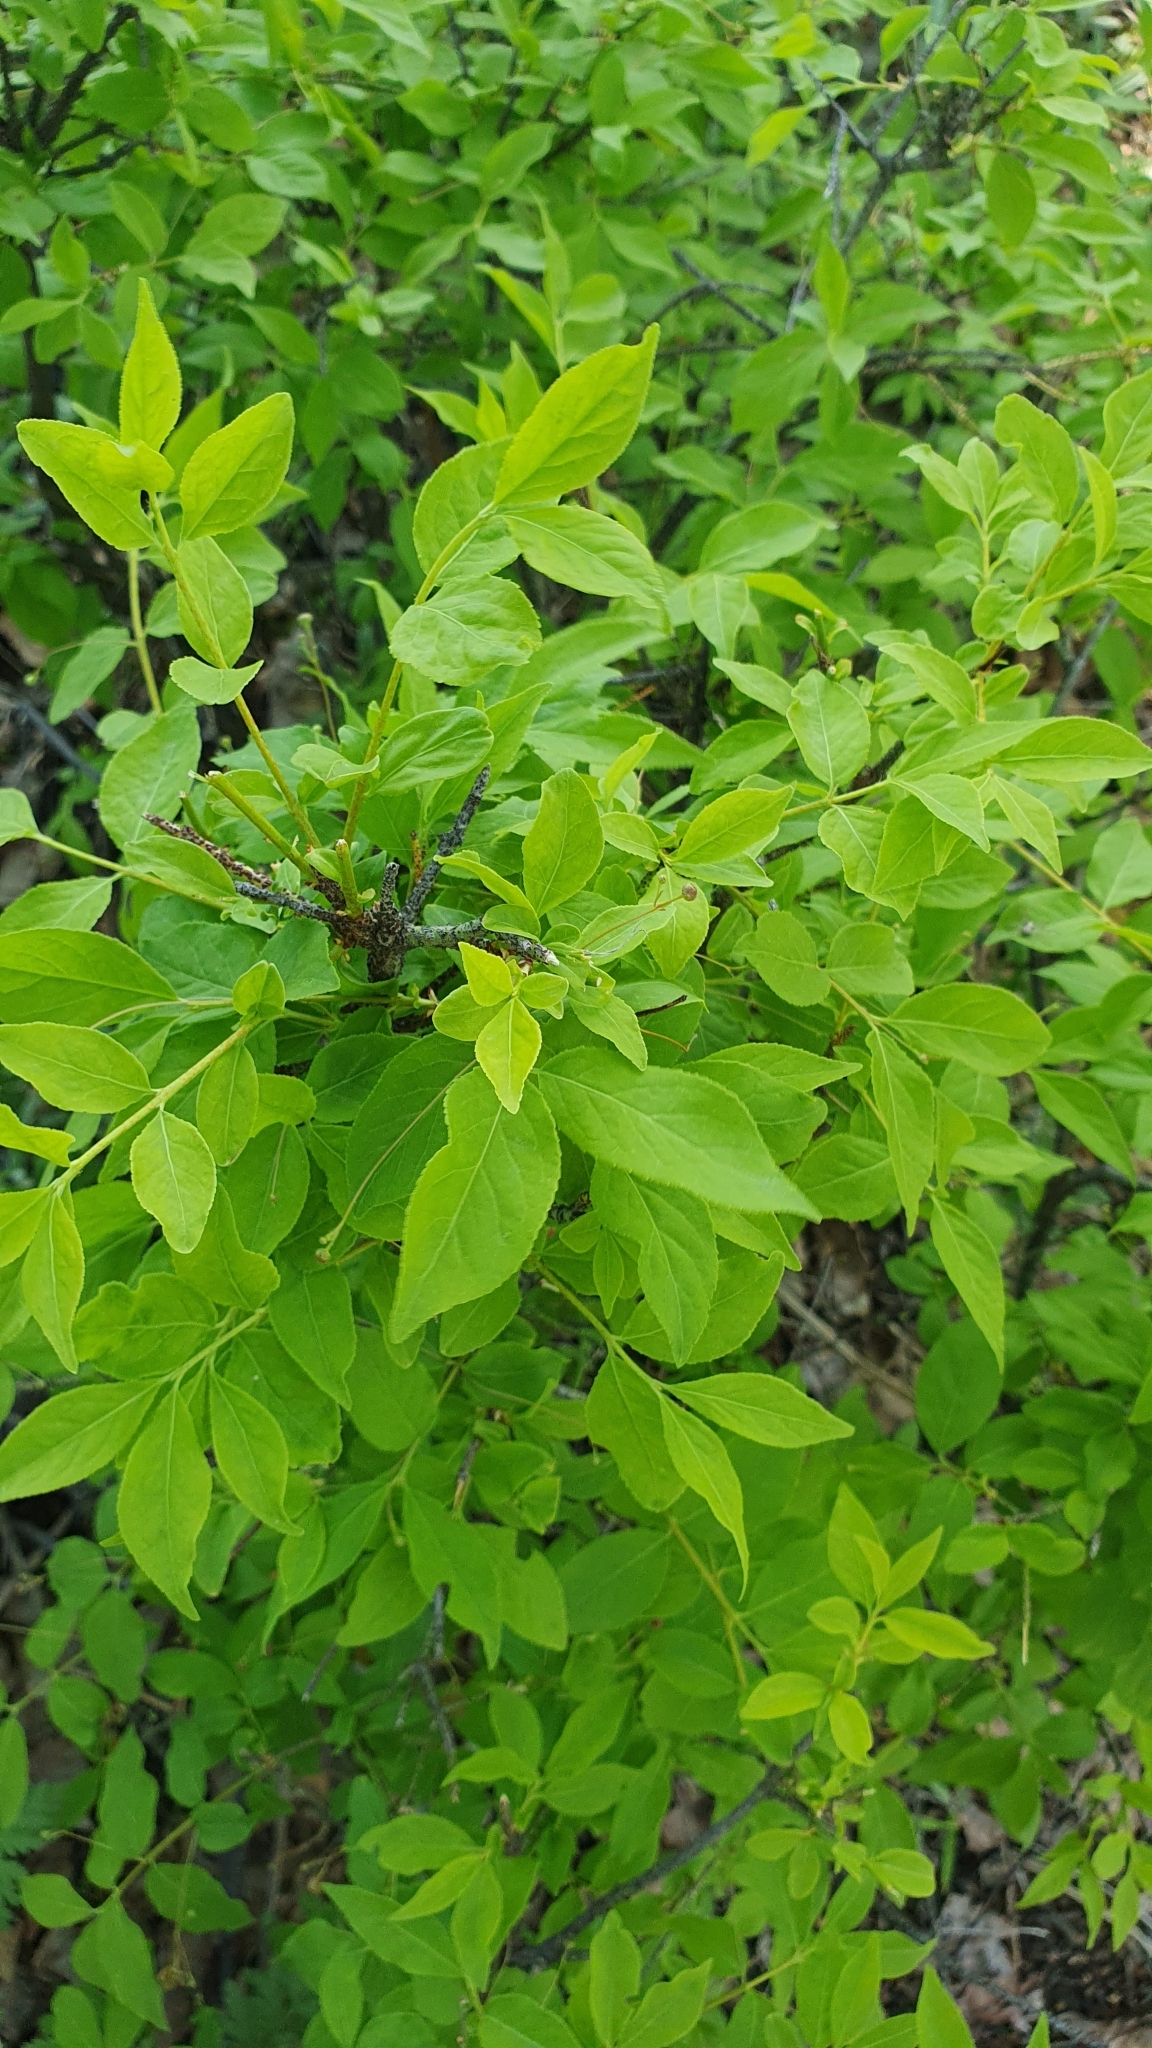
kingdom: Plantae
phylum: Tracheophyta
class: Magnoliopsida
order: Celastrales
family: Celastraceae
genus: Euonymus
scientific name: Euonymus verrucosus
